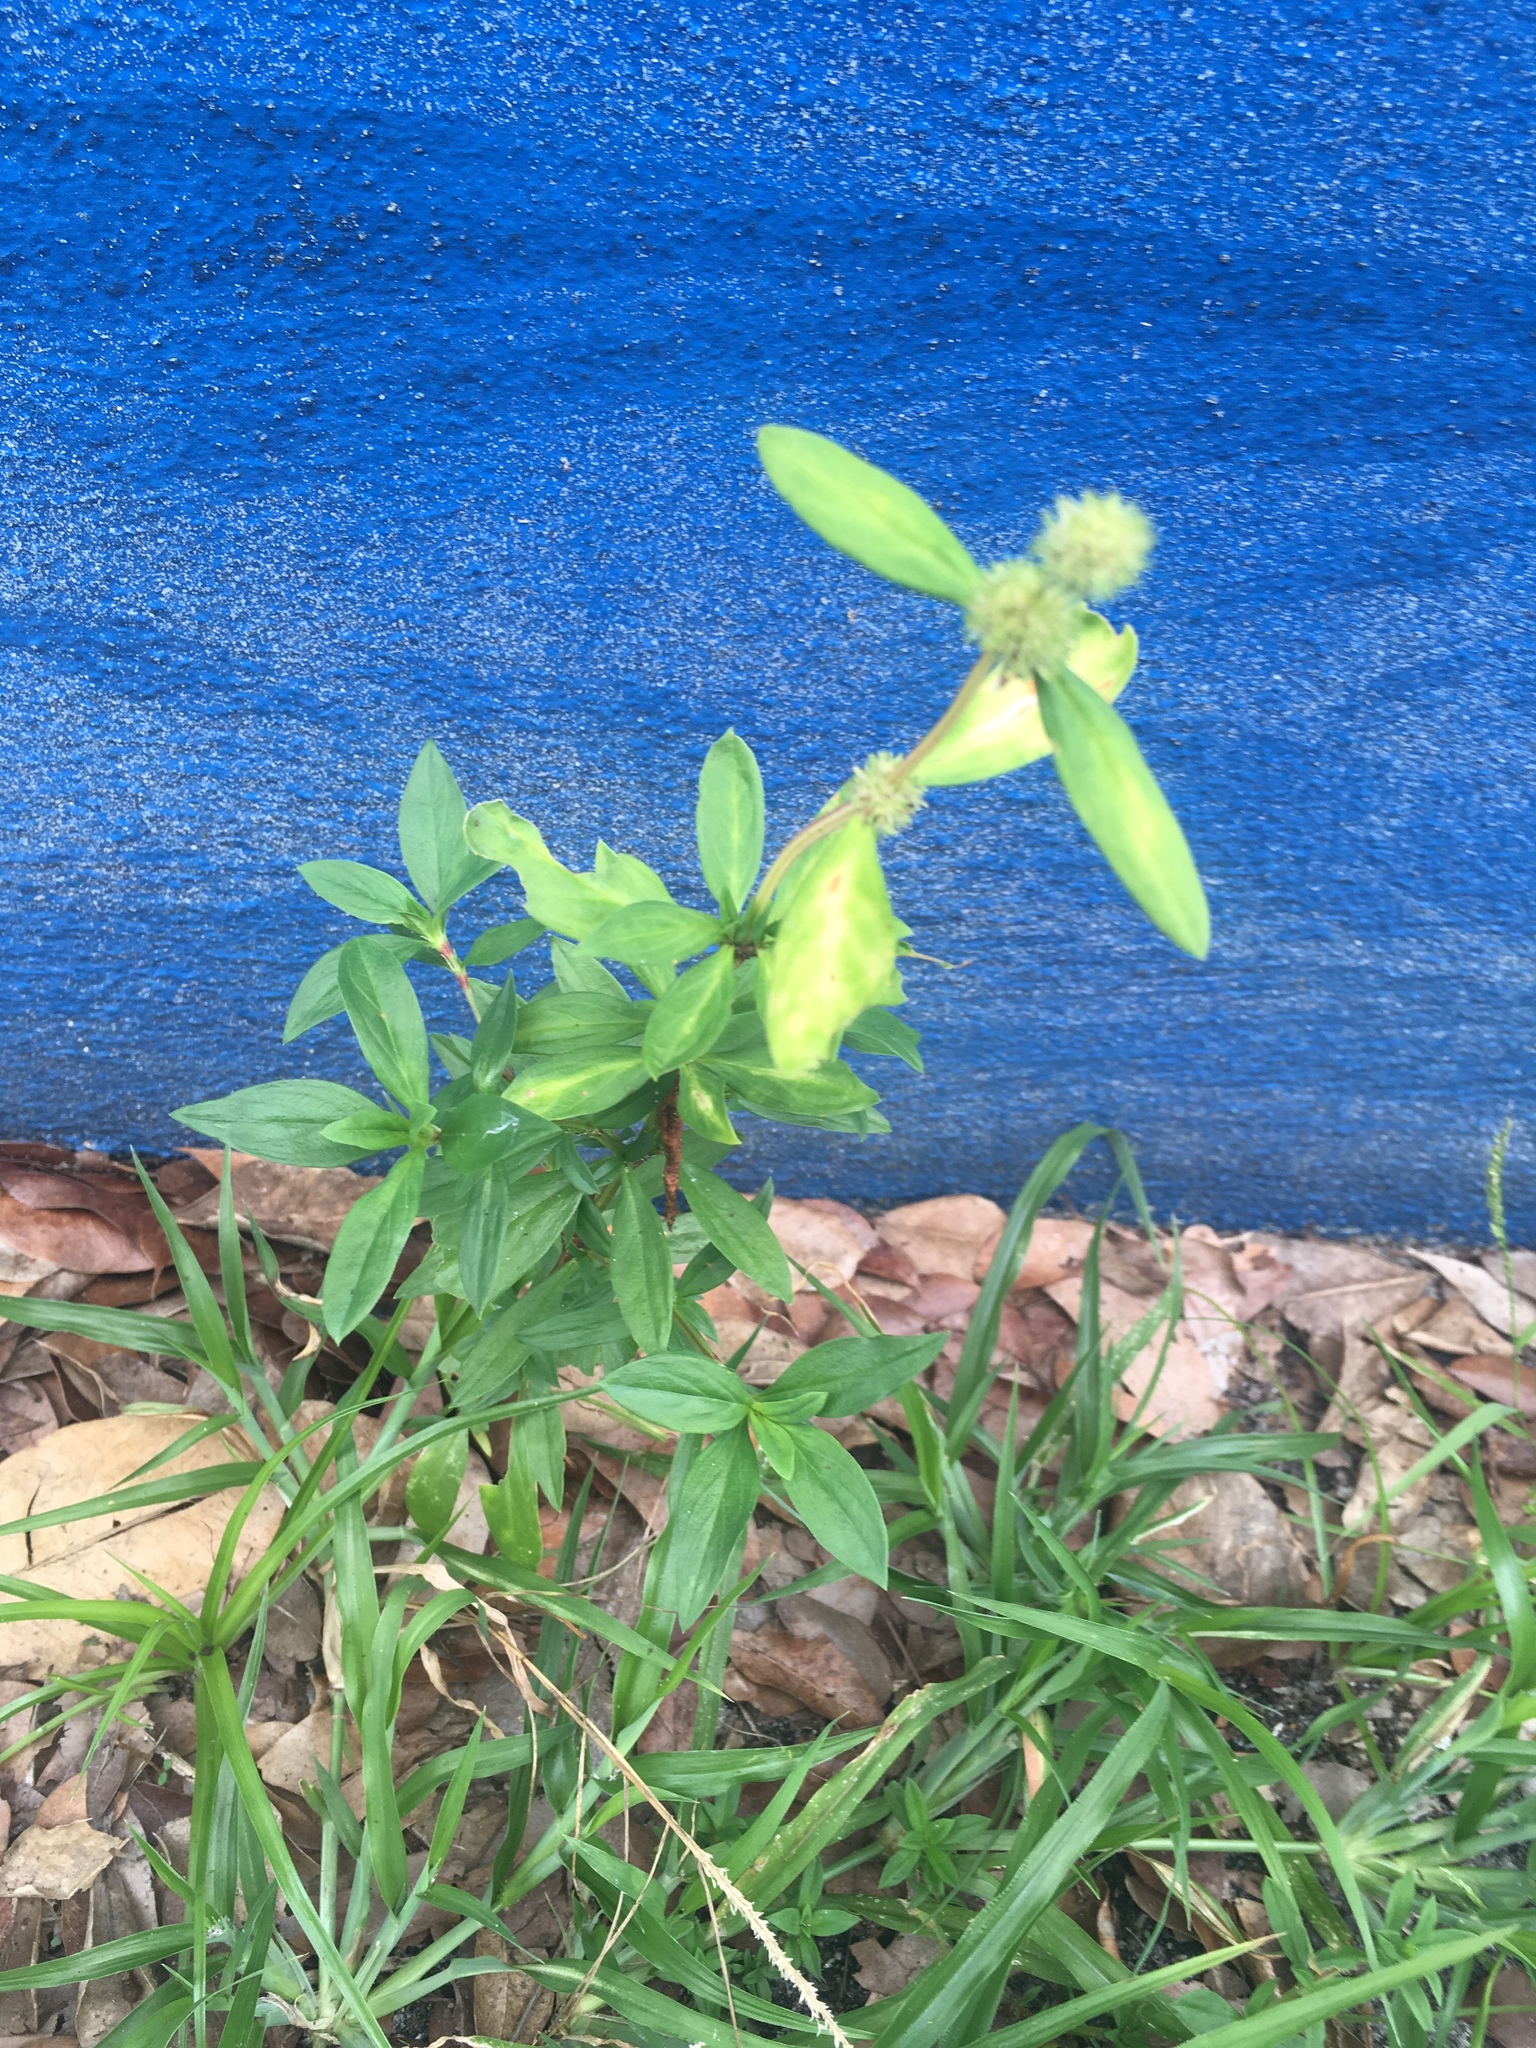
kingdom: Plantae
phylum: Tracheophyta
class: Magnoliopsida
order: Gentianales
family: Rubiaceae
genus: Spermacoce
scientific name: Spermacoce verticillata
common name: Shrubby false buttonweed
